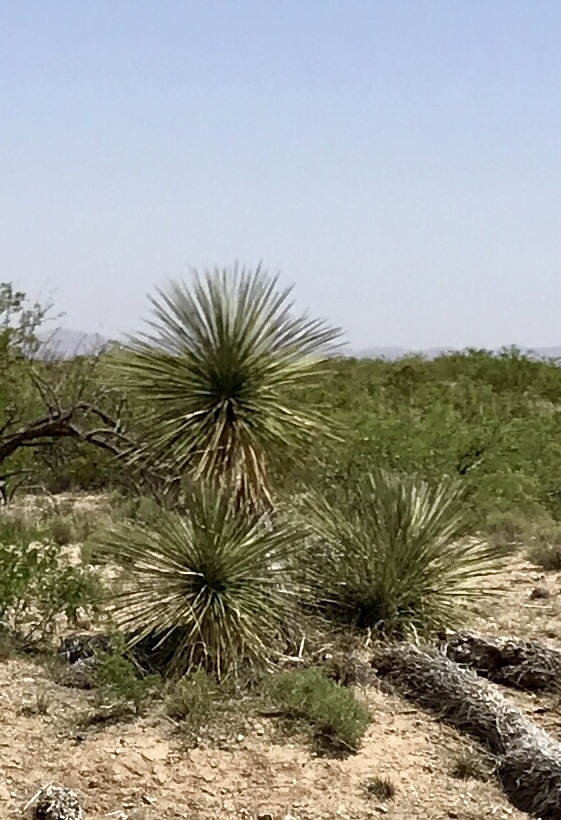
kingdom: Plantae
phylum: Tracheophyta
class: Liliopsida
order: Asparagales
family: Asparagaceae
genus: Yucca
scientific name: Yucca elata
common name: Palmella
